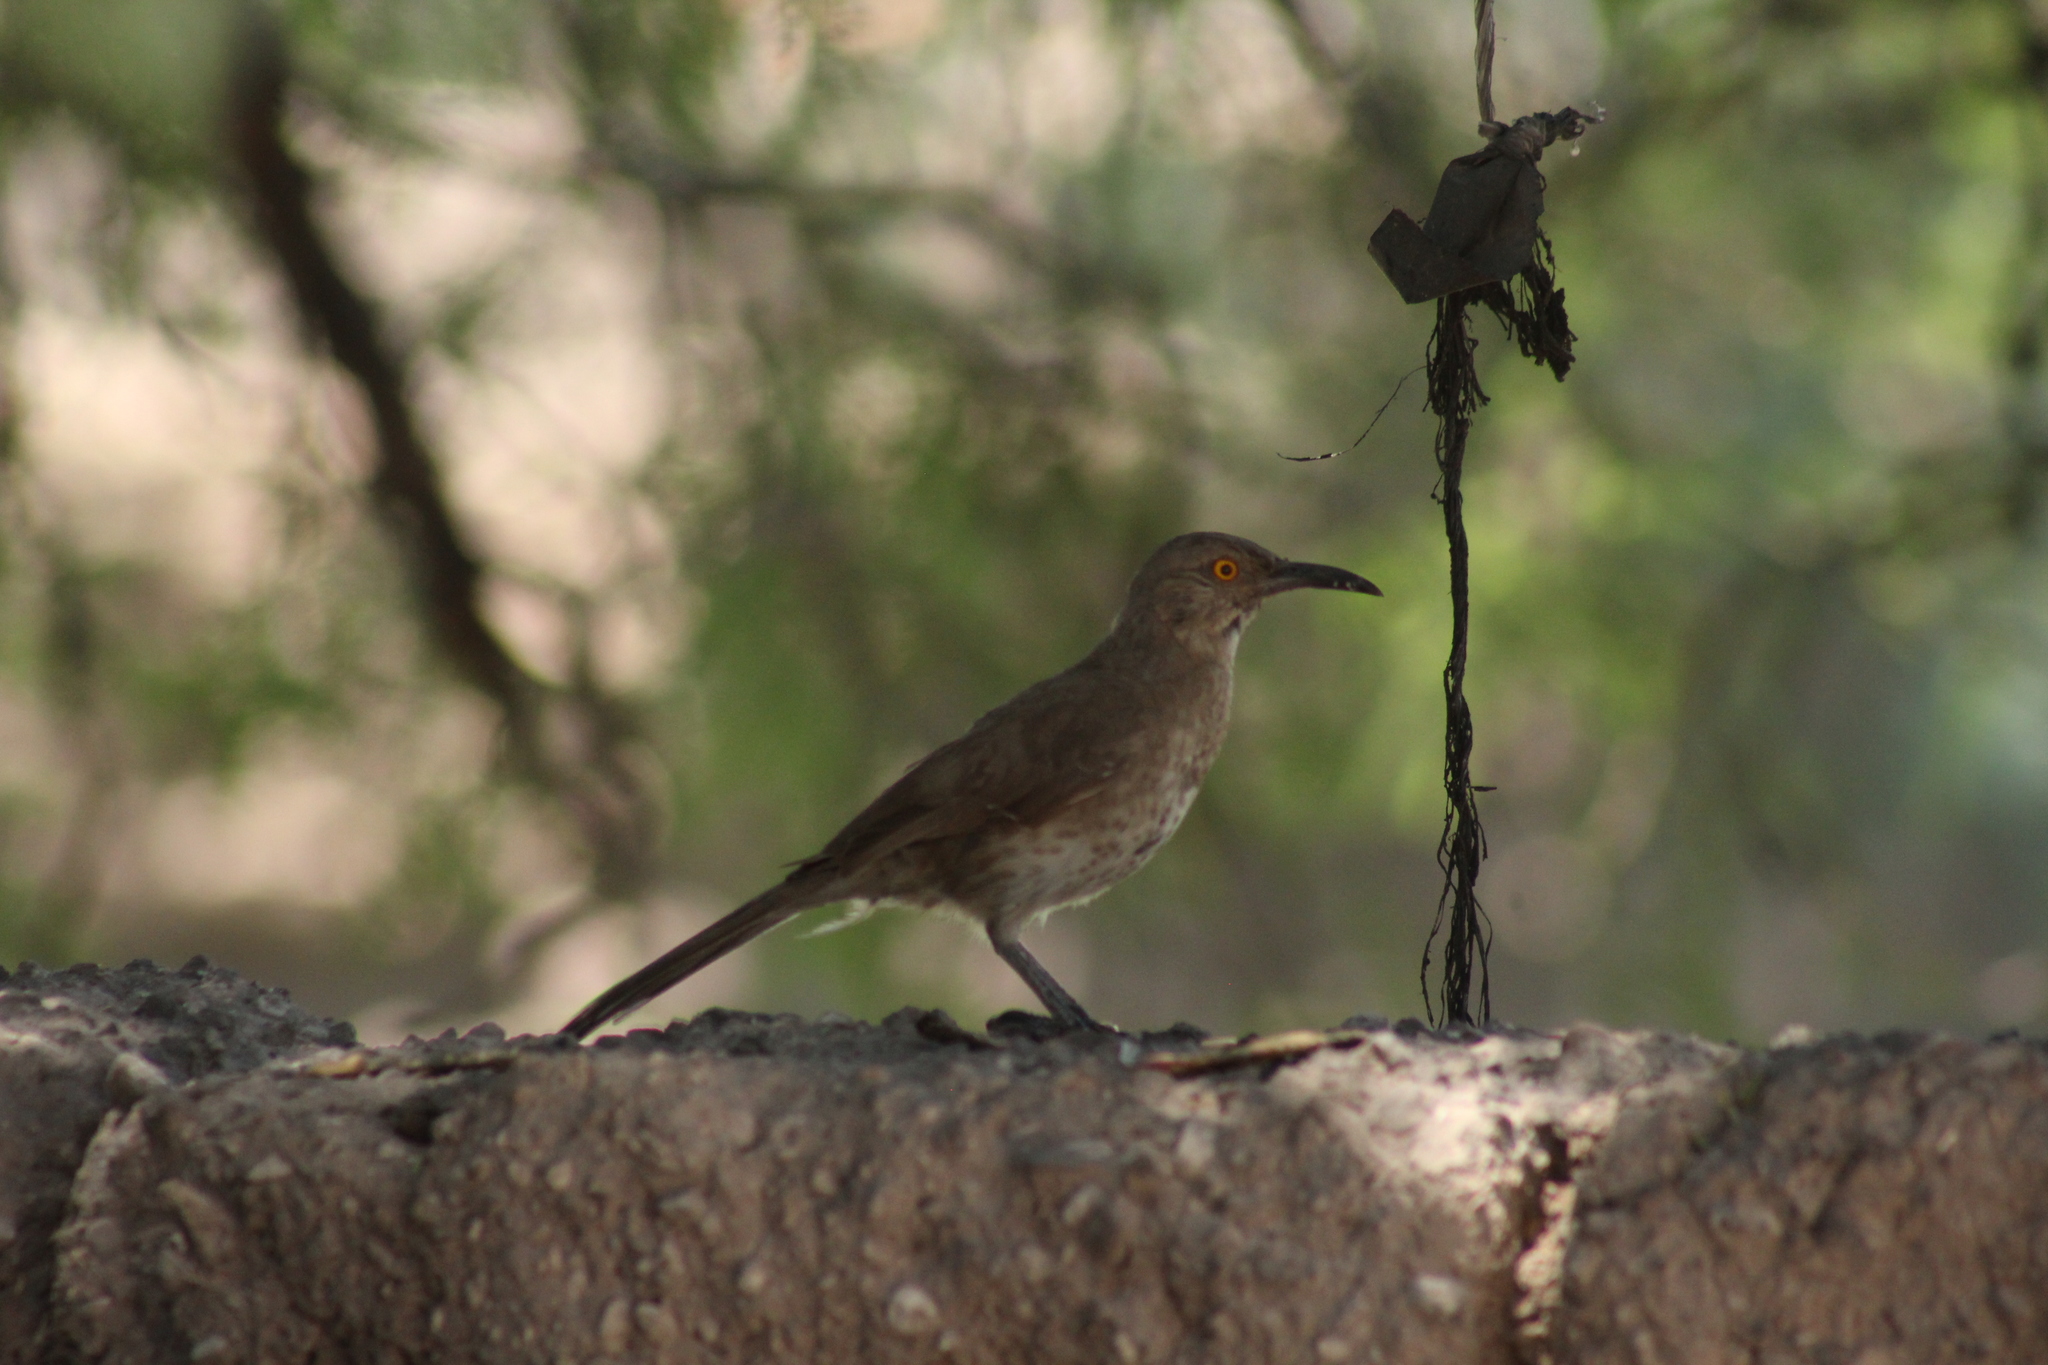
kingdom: Animalia
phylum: Chordata
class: Aves
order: Passeriformes
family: Mimidae
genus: Toxostoma
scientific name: Toxostoma curvirostre
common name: Curve-billed thrasher
